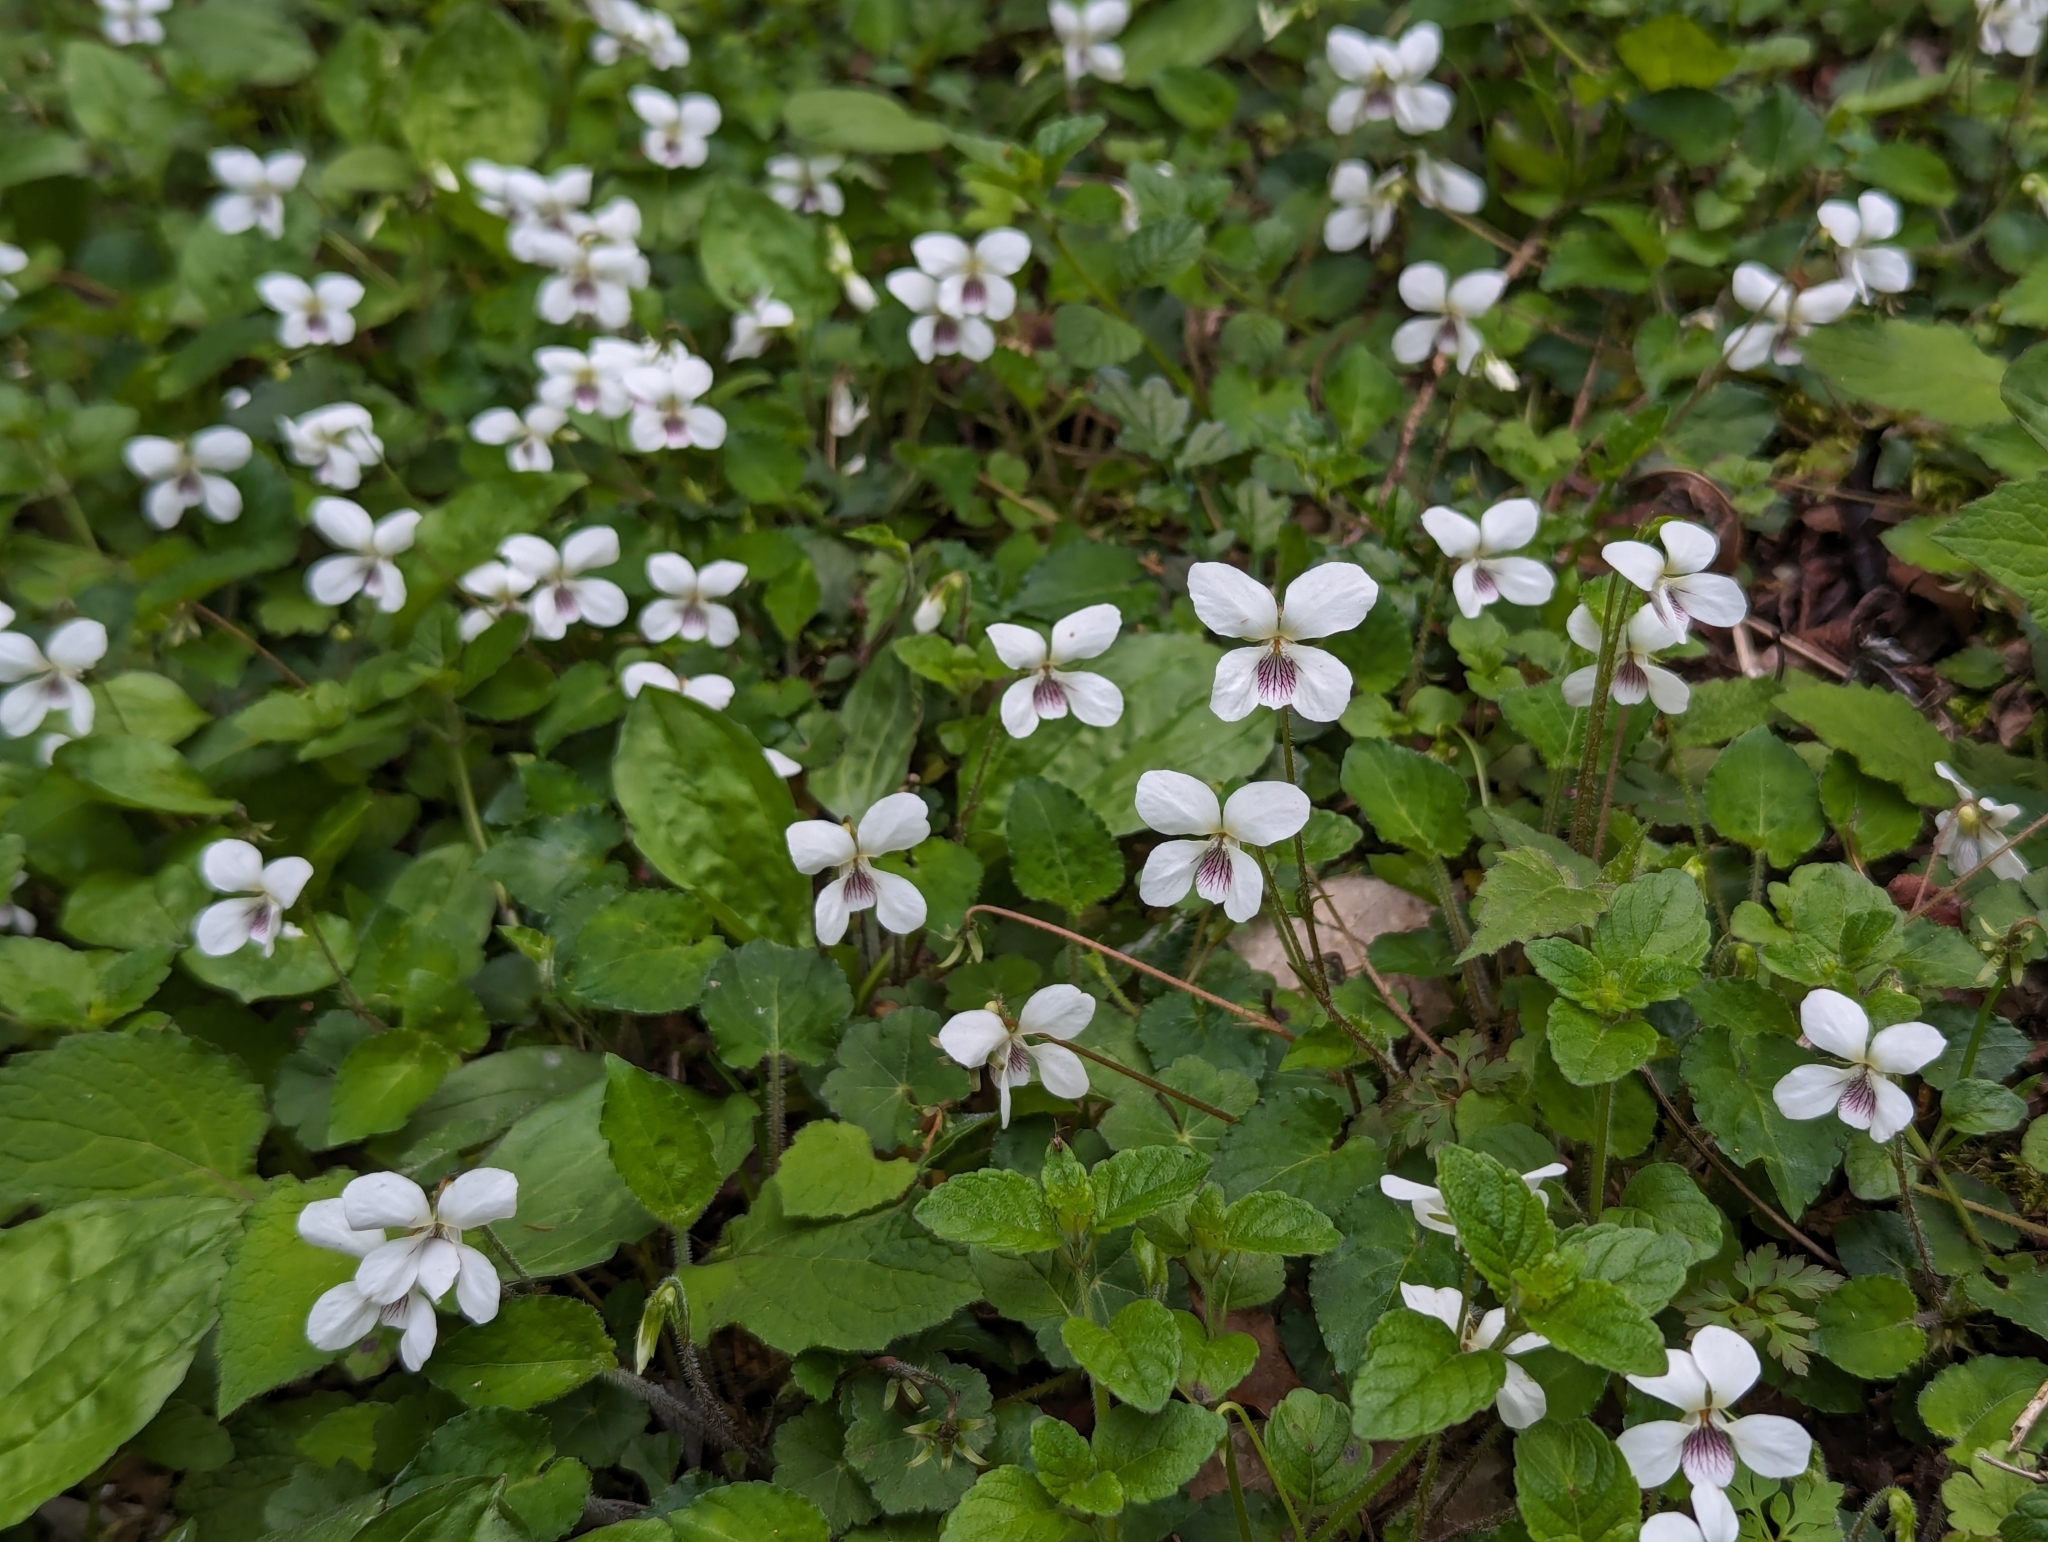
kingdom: Plantae
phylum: Tracheophyta
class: Magnoliopsida
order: Malpighiales
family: Violaceae
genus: Viola
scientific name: Viola adenothrix
